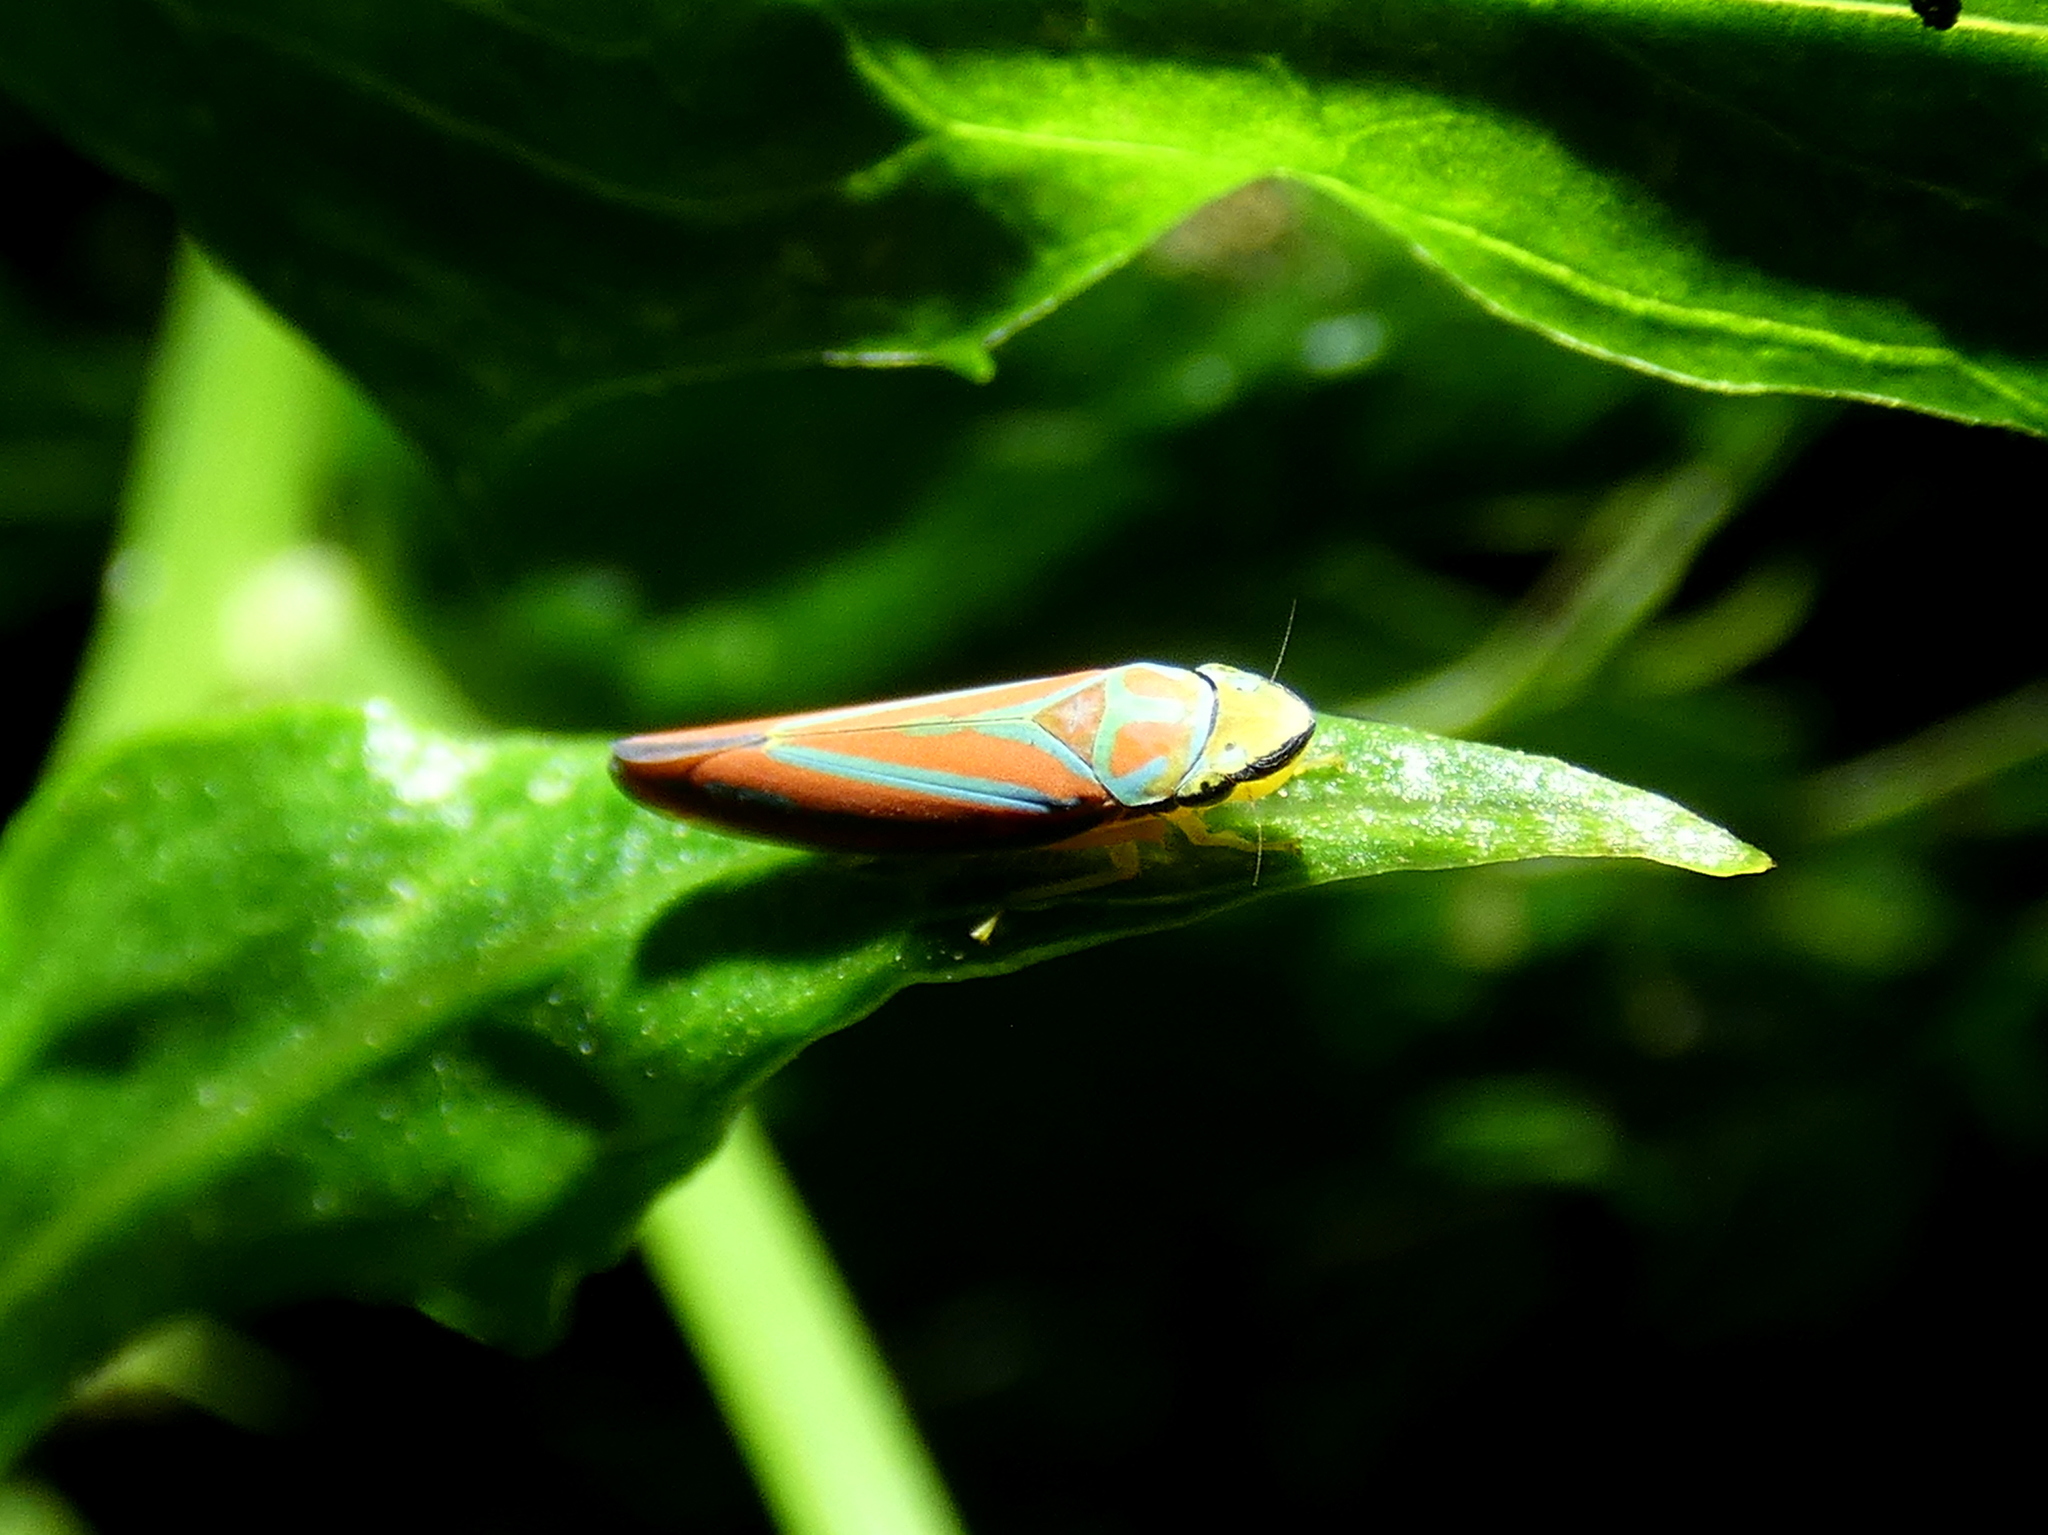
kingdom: Animalia
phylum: Arthropoda
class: Insecta
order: Hemiptera
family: Cicadellidae
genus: Graphocephala
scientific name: Graphocephala coccinea
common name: Candy-striped leafhopper
